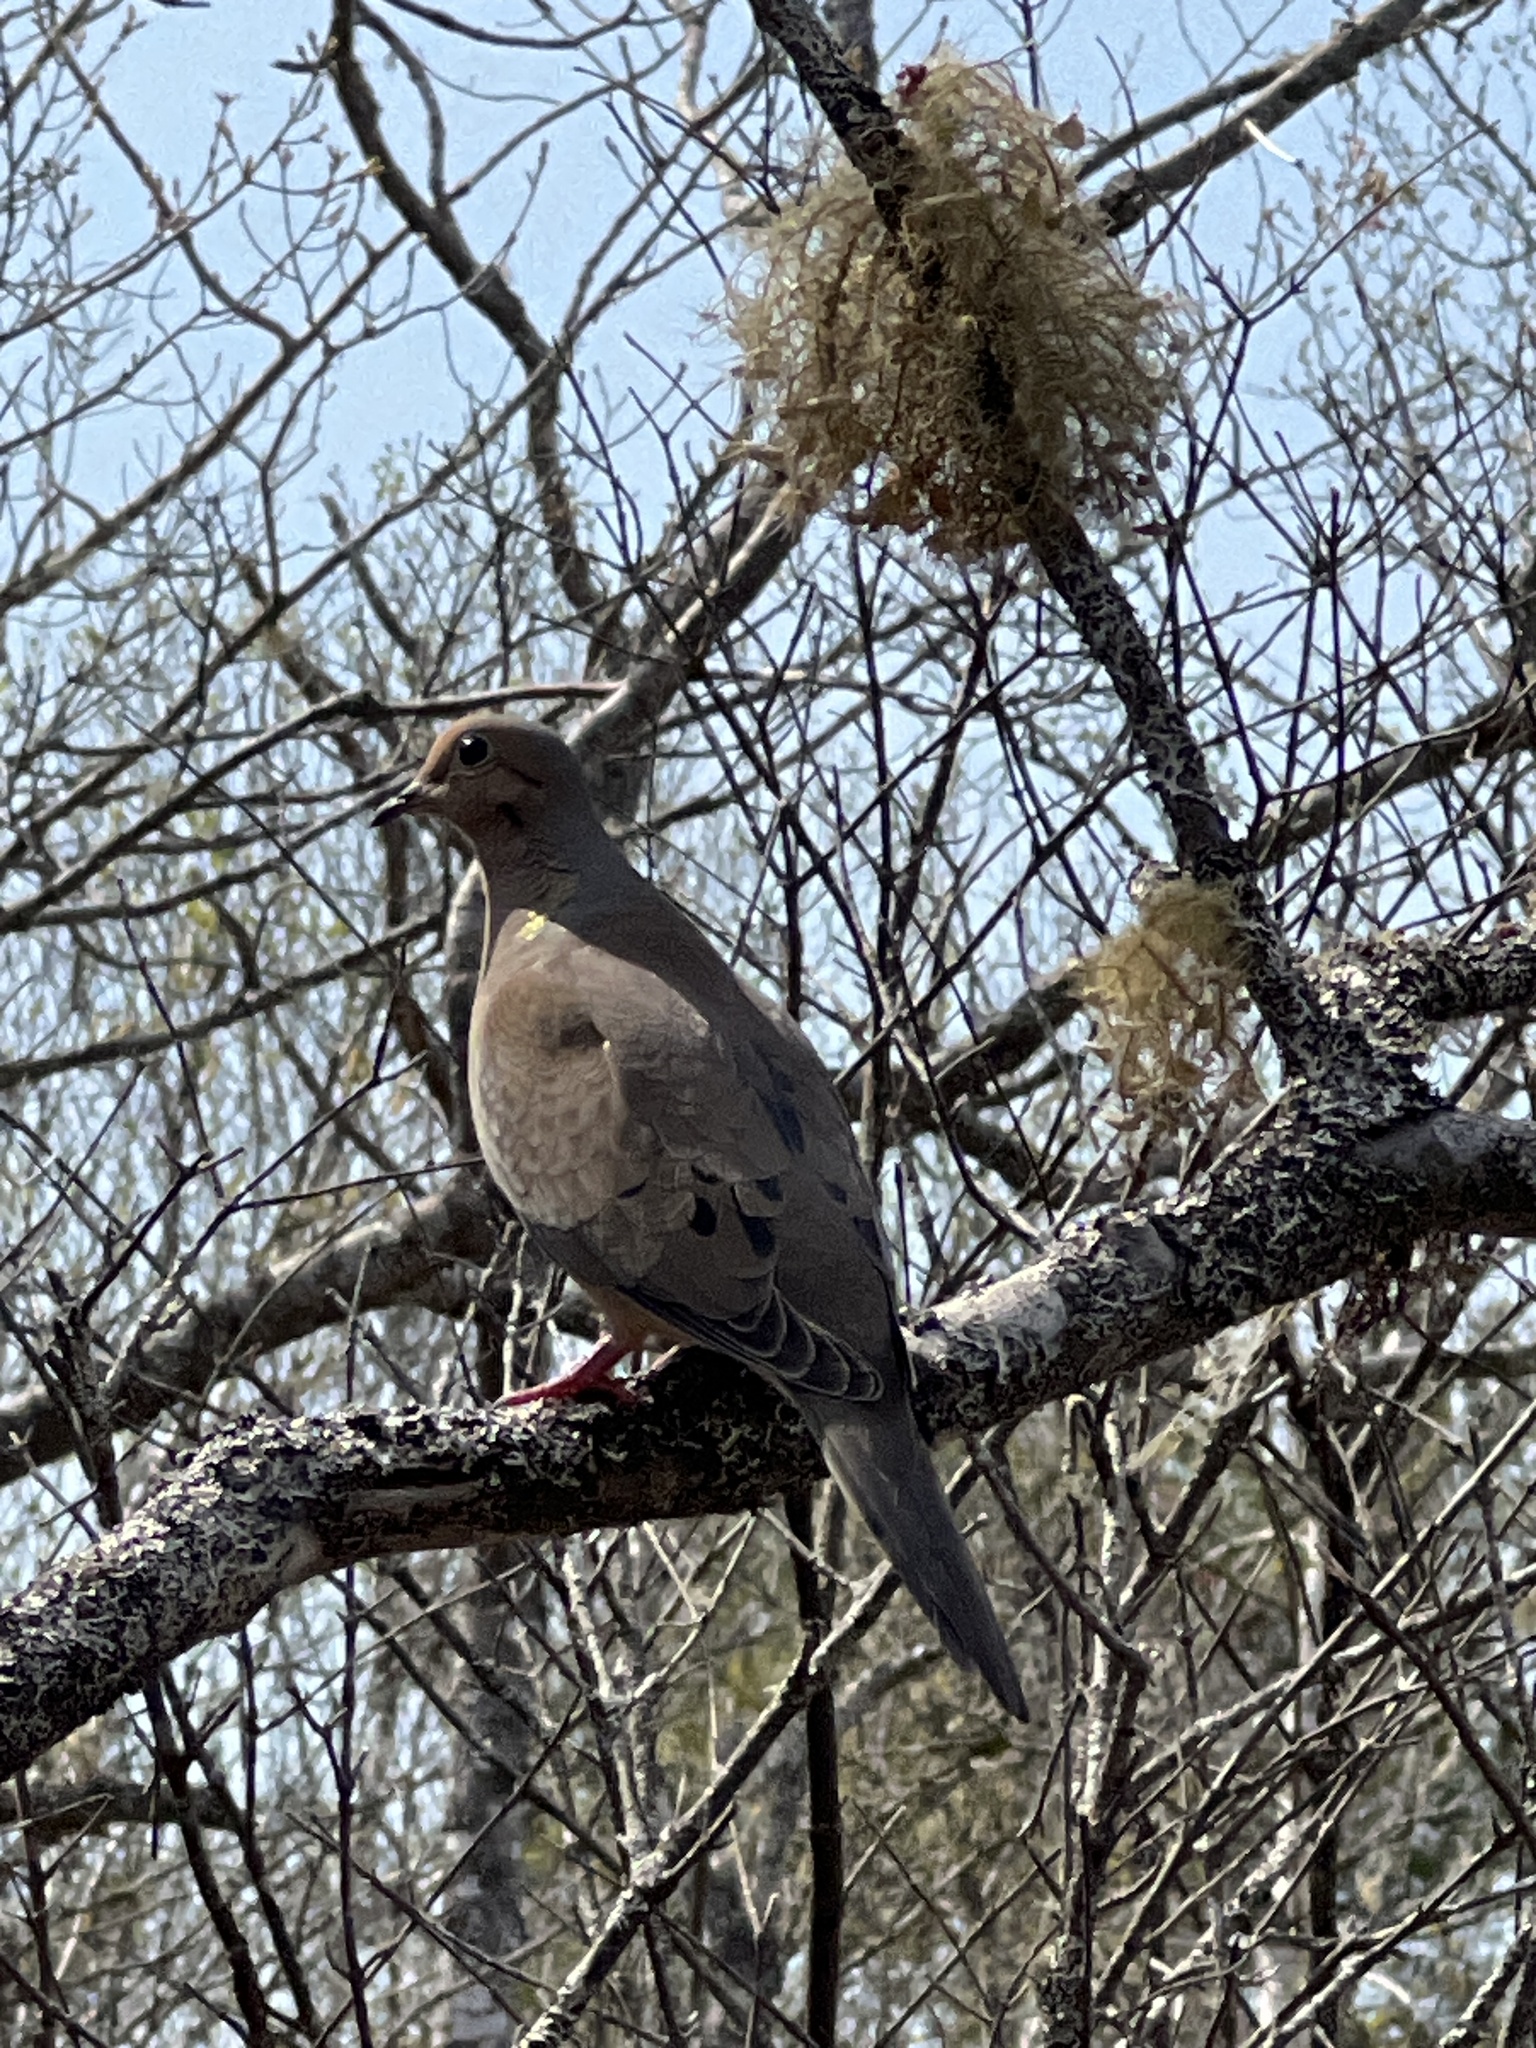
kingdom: Animalia
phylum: Chordata
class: Aves
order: Columbiformes
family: Columbidae
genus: Zenaida
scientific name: Zenaida macroura
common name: Mourning dove
